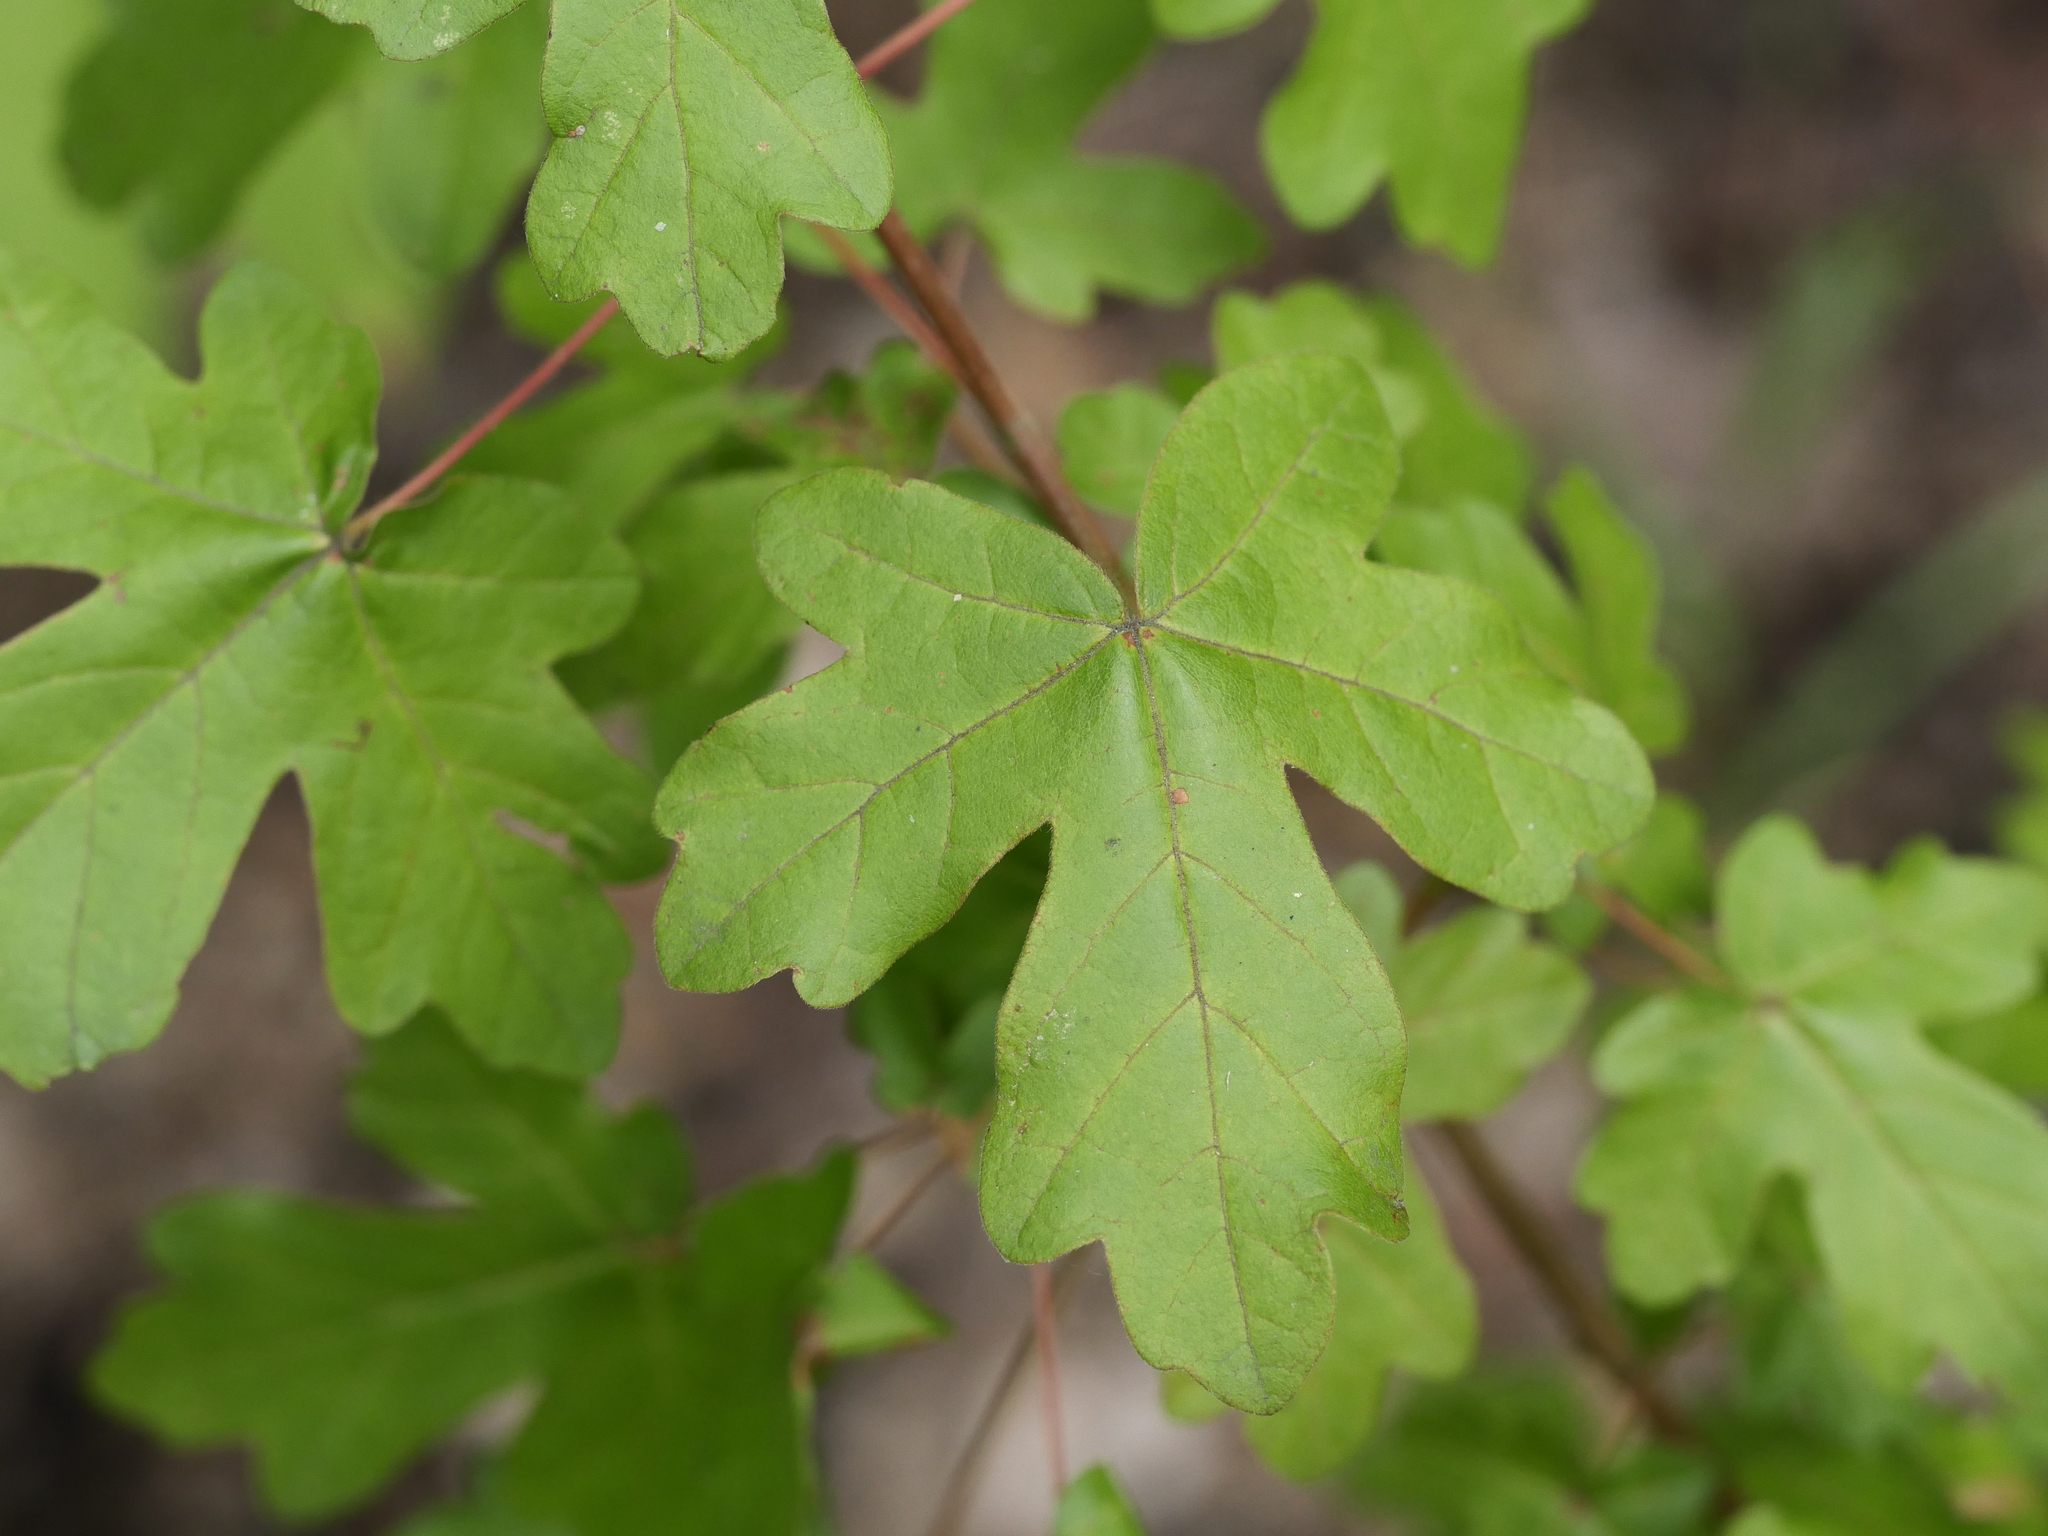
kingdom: Plantae
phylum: Tracheophyta
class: Magnoliopsida
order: Sapindales
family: Sapindaceae
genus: Acer
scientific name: Acer campestre
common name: Field maple
